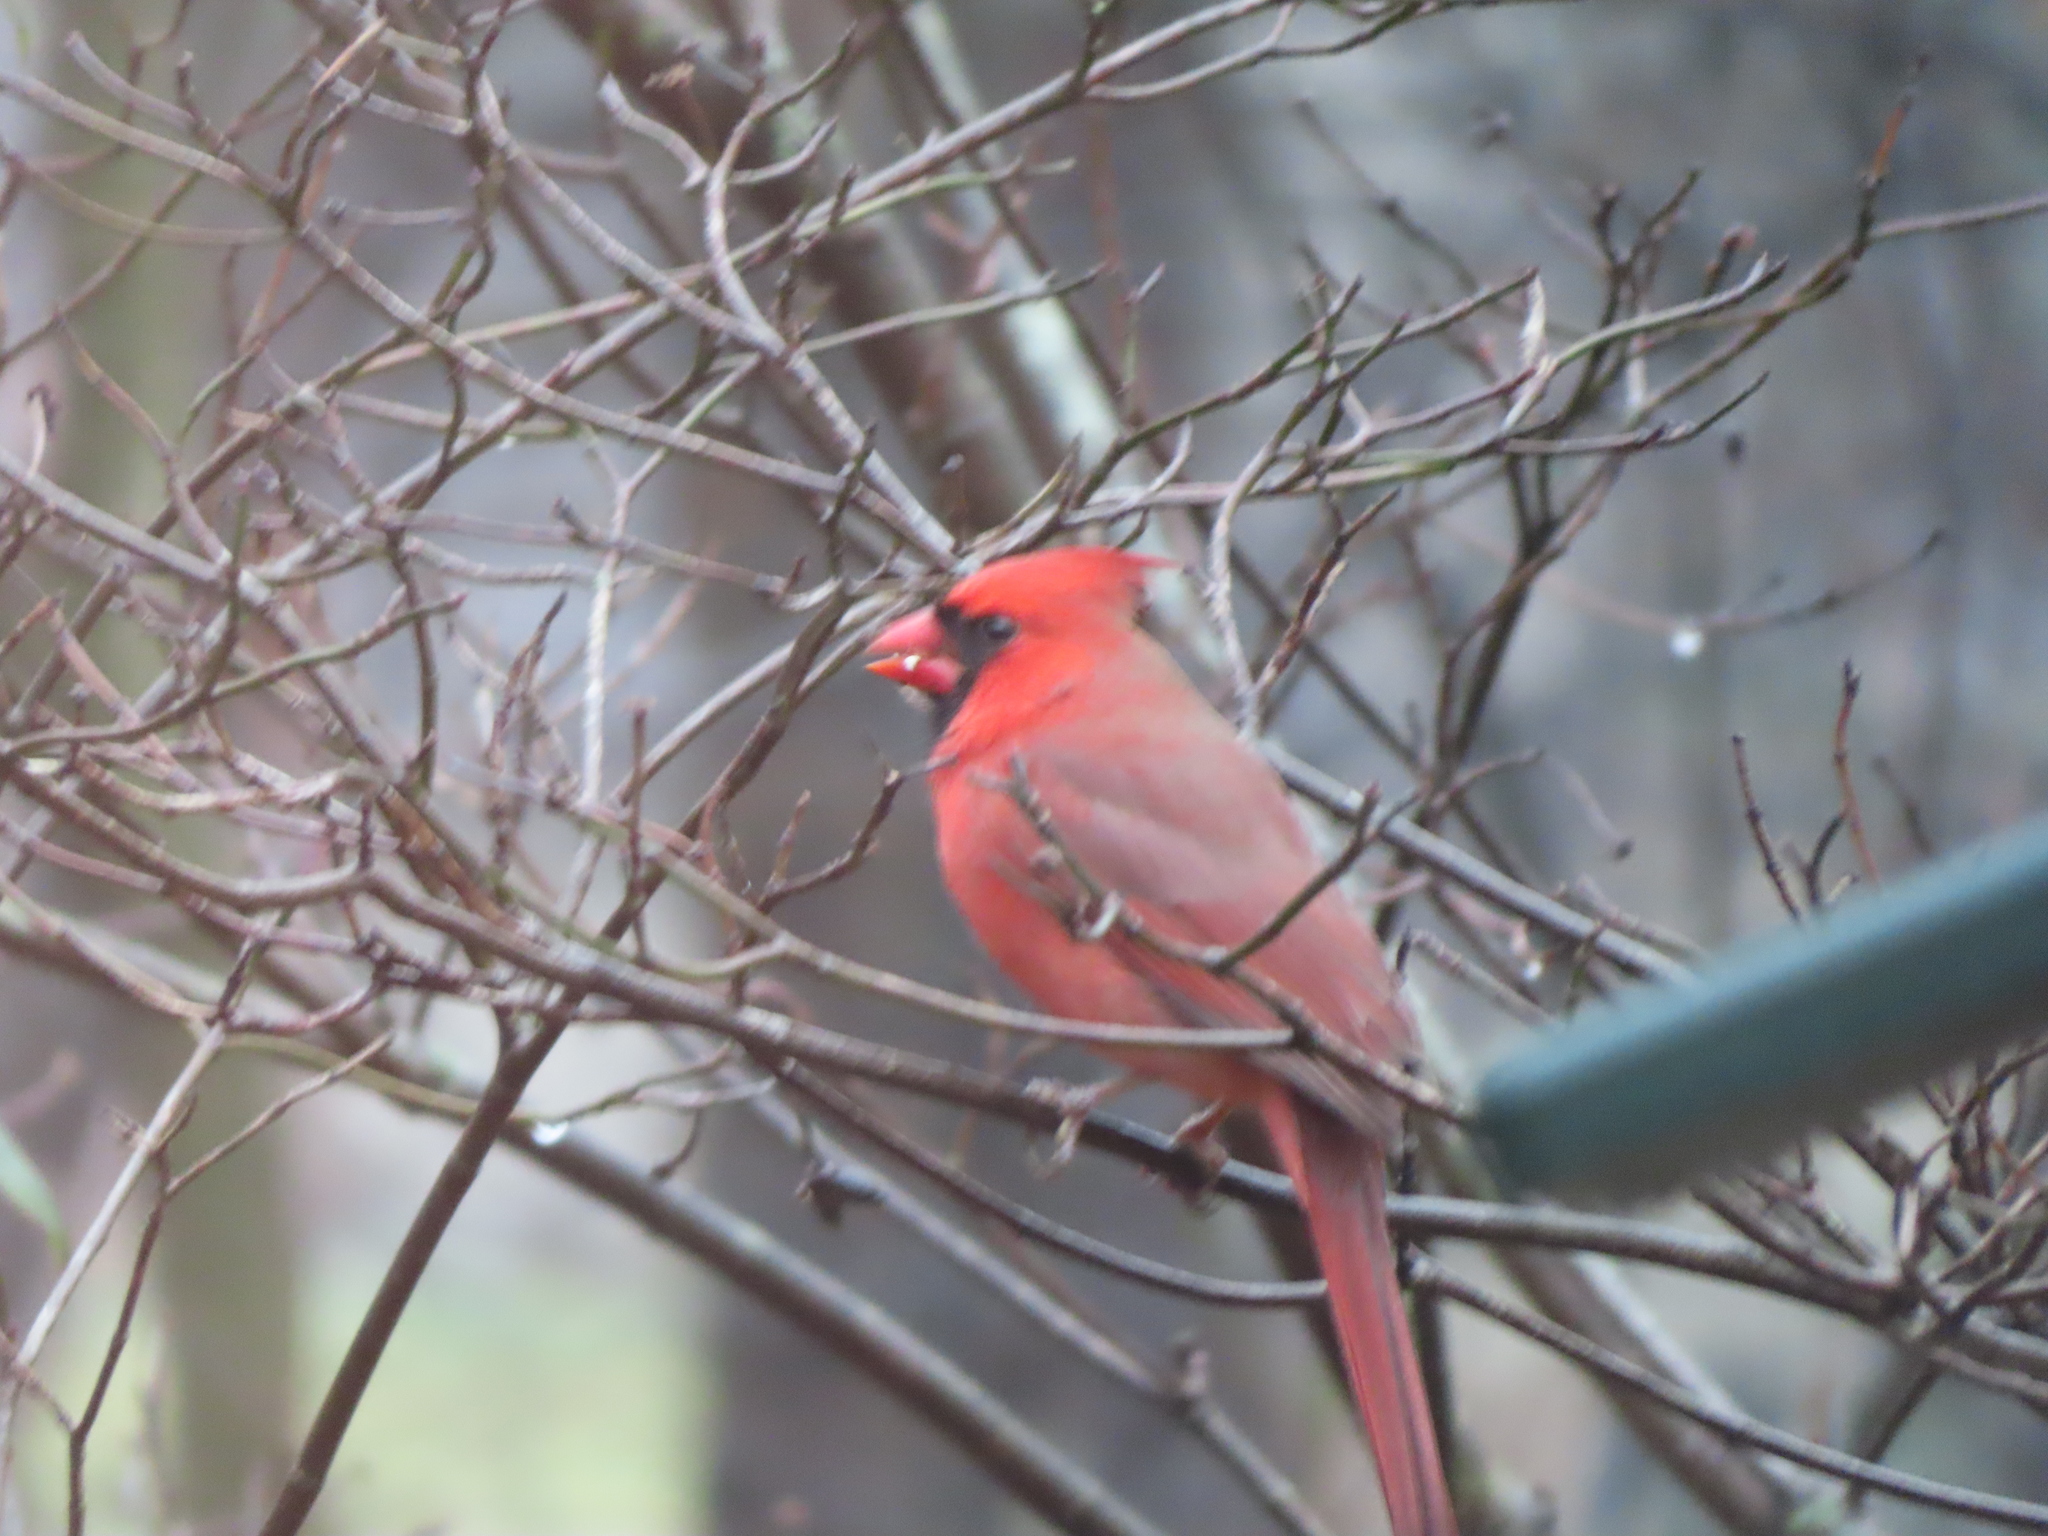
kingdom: Animalia
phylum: Chordata
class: Aves
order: Passeriformes
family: Cardinalidae
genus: Cardinalis
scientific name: Cardinalis cardinalis
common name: Northern cardinal
